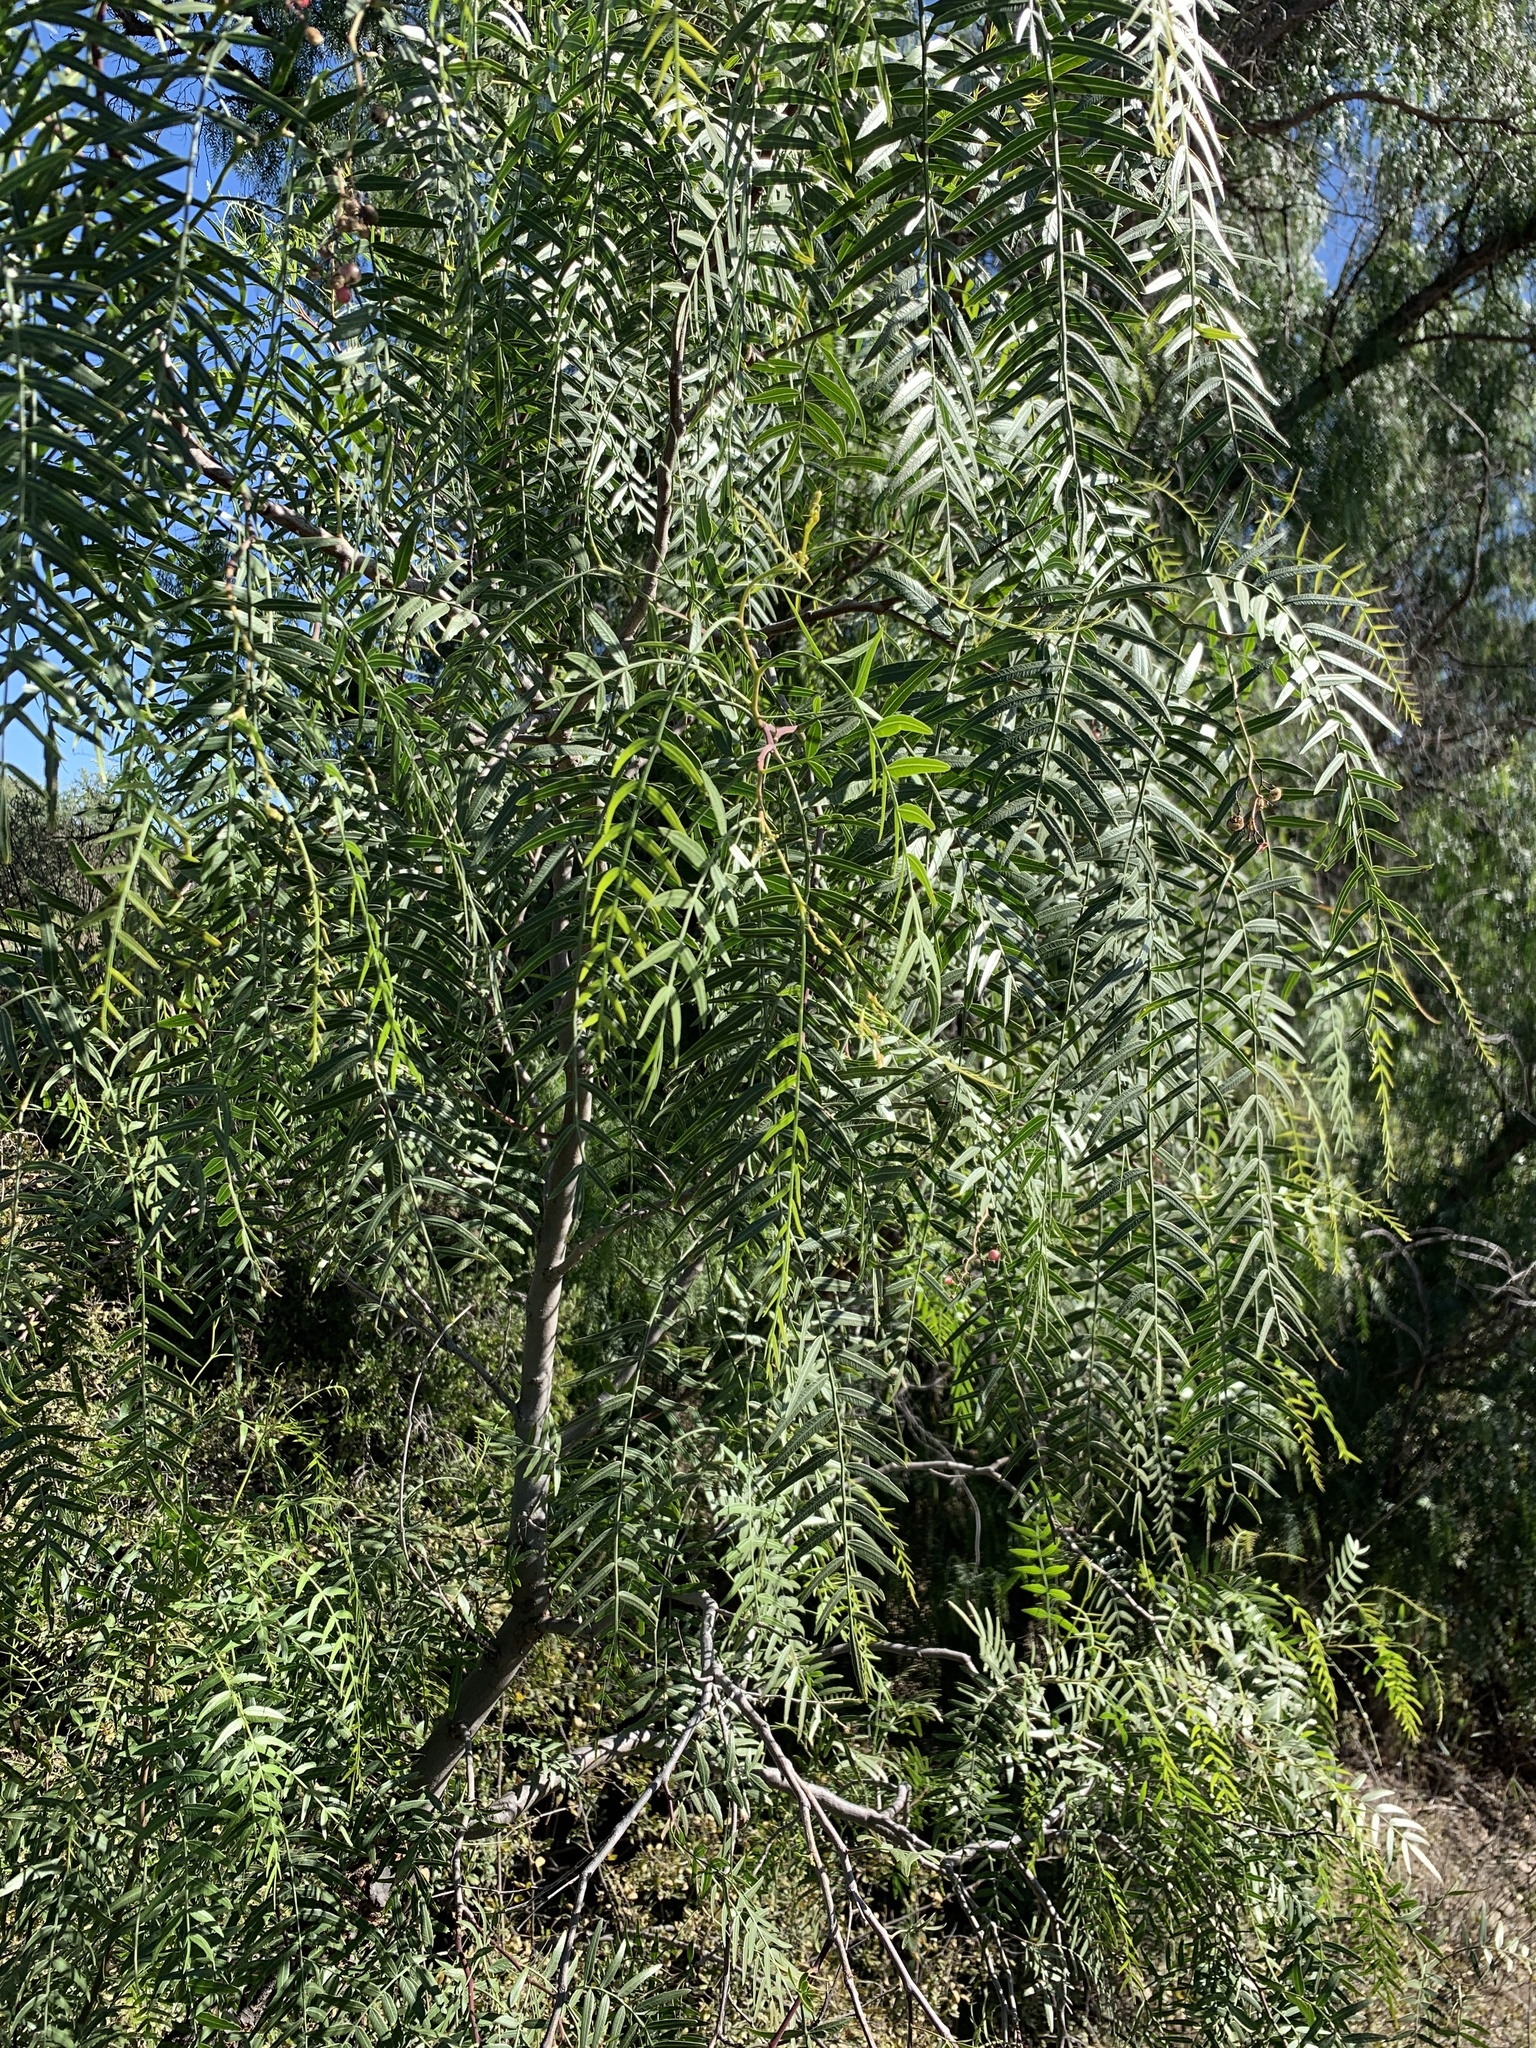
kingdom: Plantae
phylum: Tracheophyta
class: Magnoliopsida
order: Sapindales
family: Anacardiaceae
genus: Schinus
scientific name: Schinus molle
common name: Peruvian peppertree
